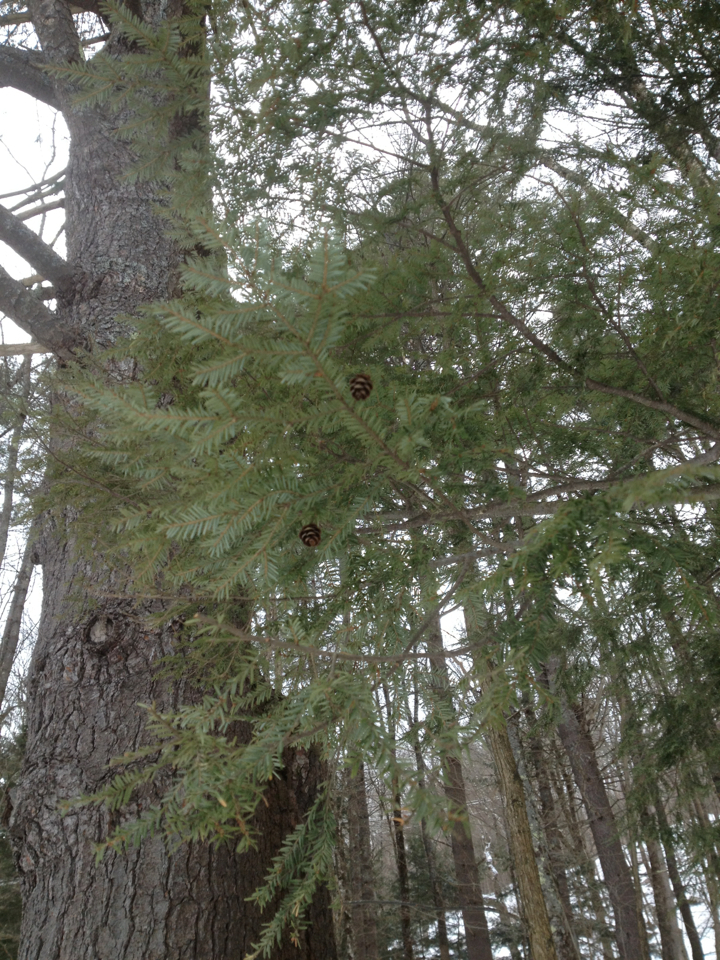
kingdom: Plantae
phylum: Tracheophyta
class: Pinopsida
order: Pinales
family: Pinaceae
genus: Tsuga
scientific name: Tsuga canadensis
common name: Eastern hemlock
